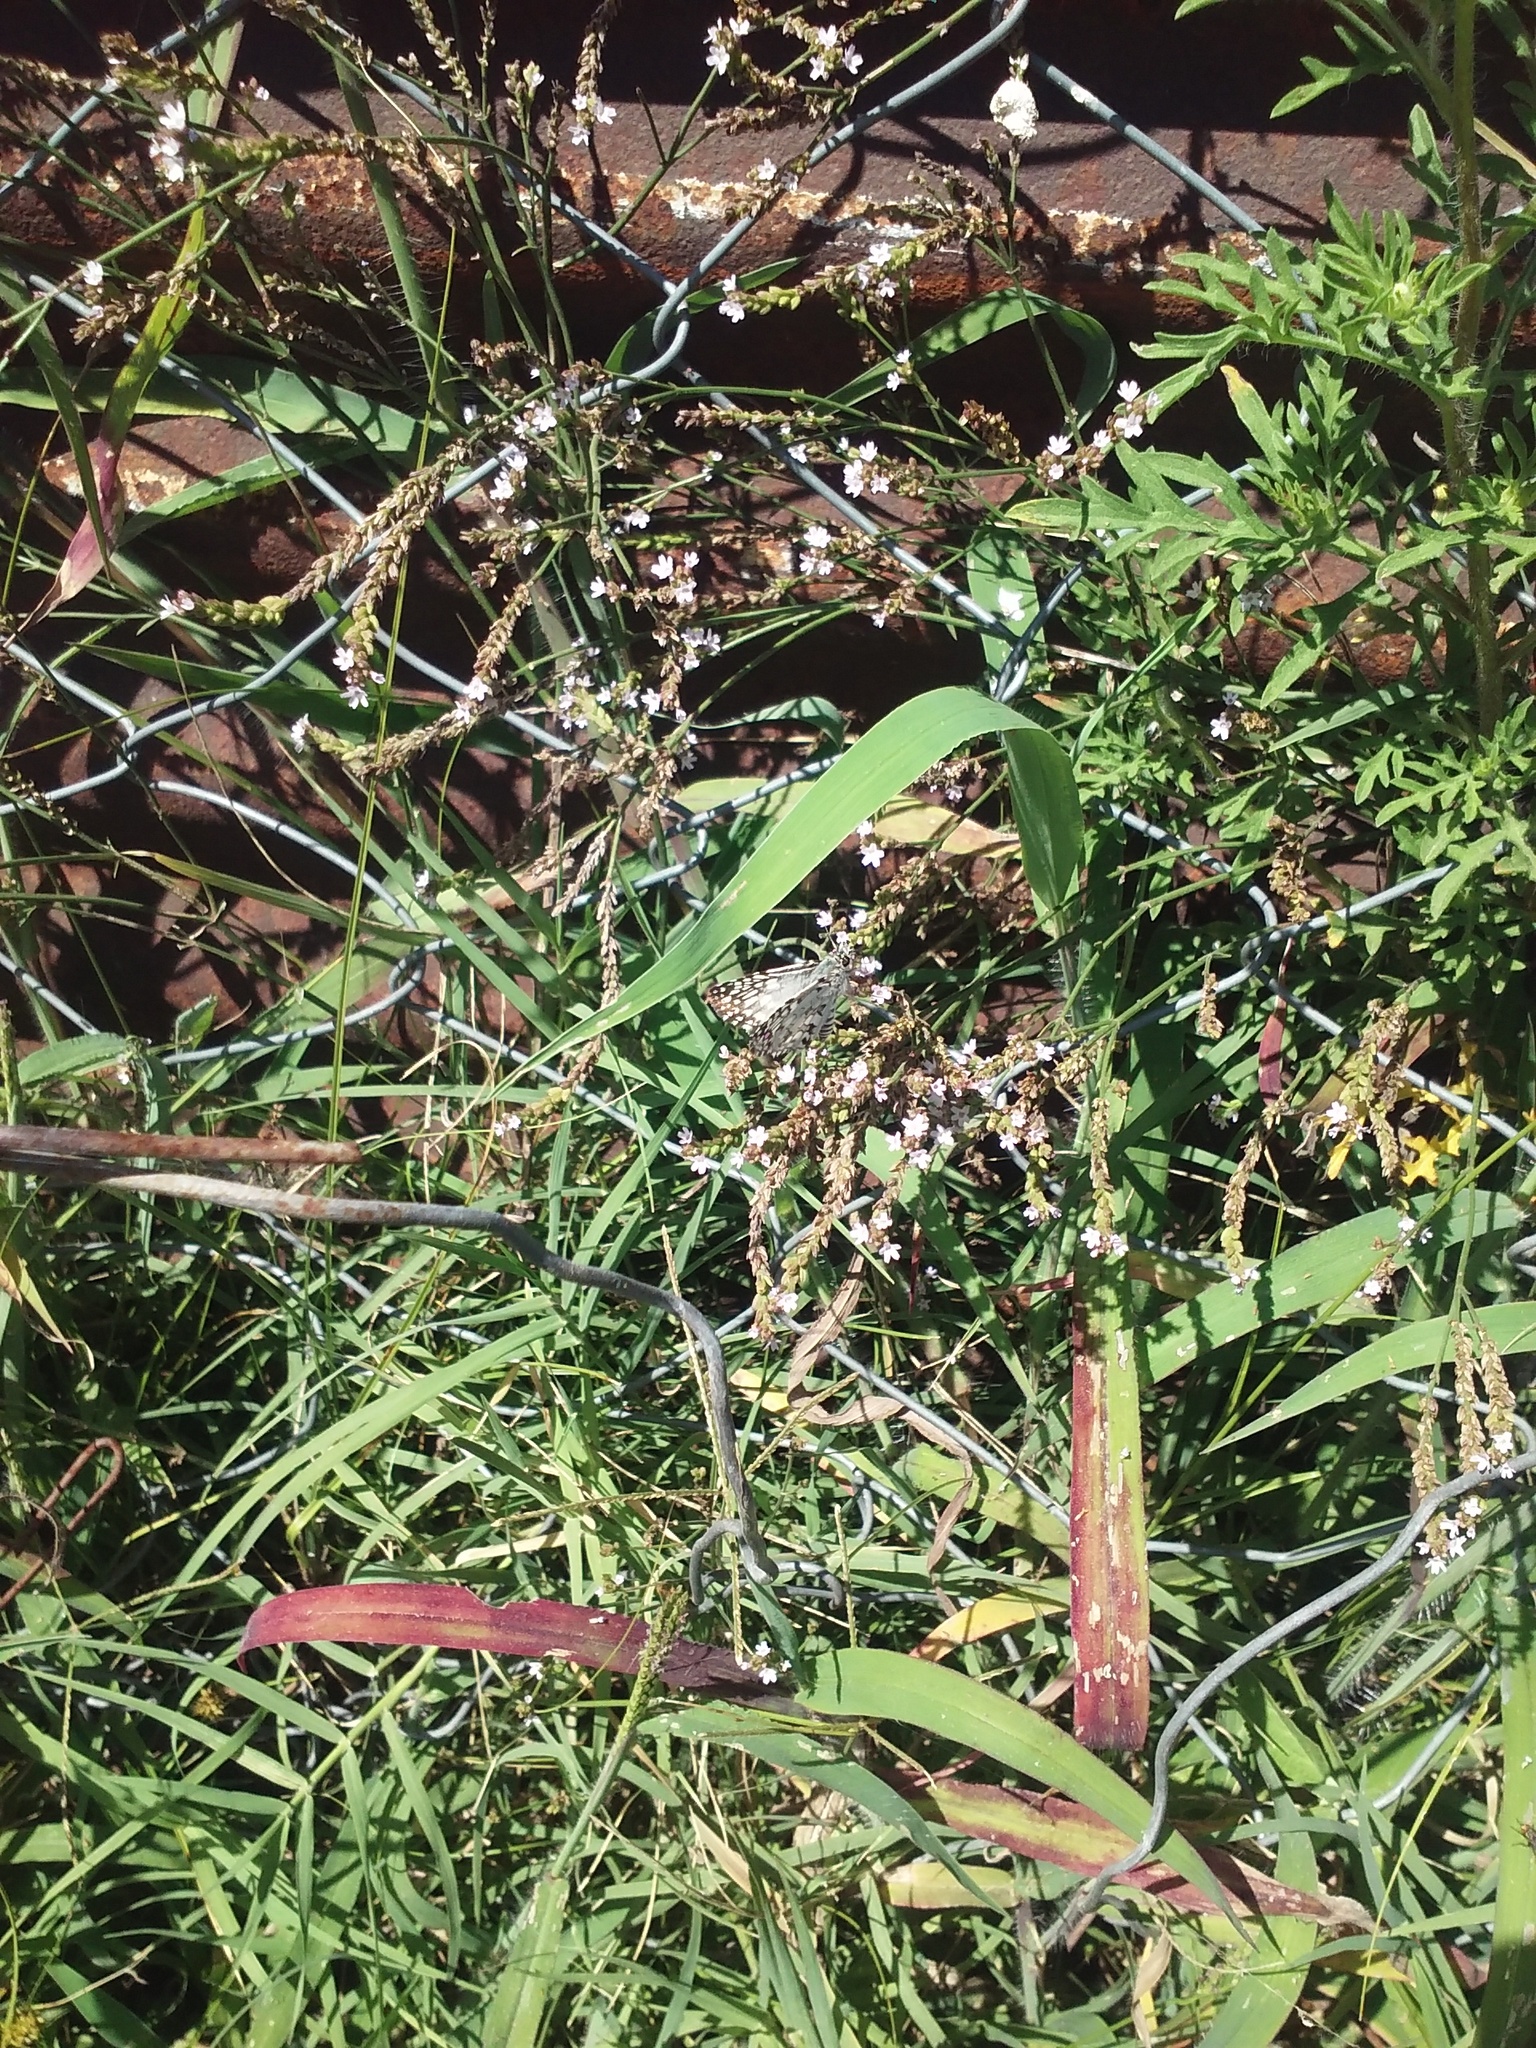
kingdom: Animalia
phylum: Arthropoda
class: Insecta
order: Lepidoptera
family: Hesperiidae
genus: Pyrgus
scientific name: Pyrgus oileus
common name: Tropical checkered-skipper
